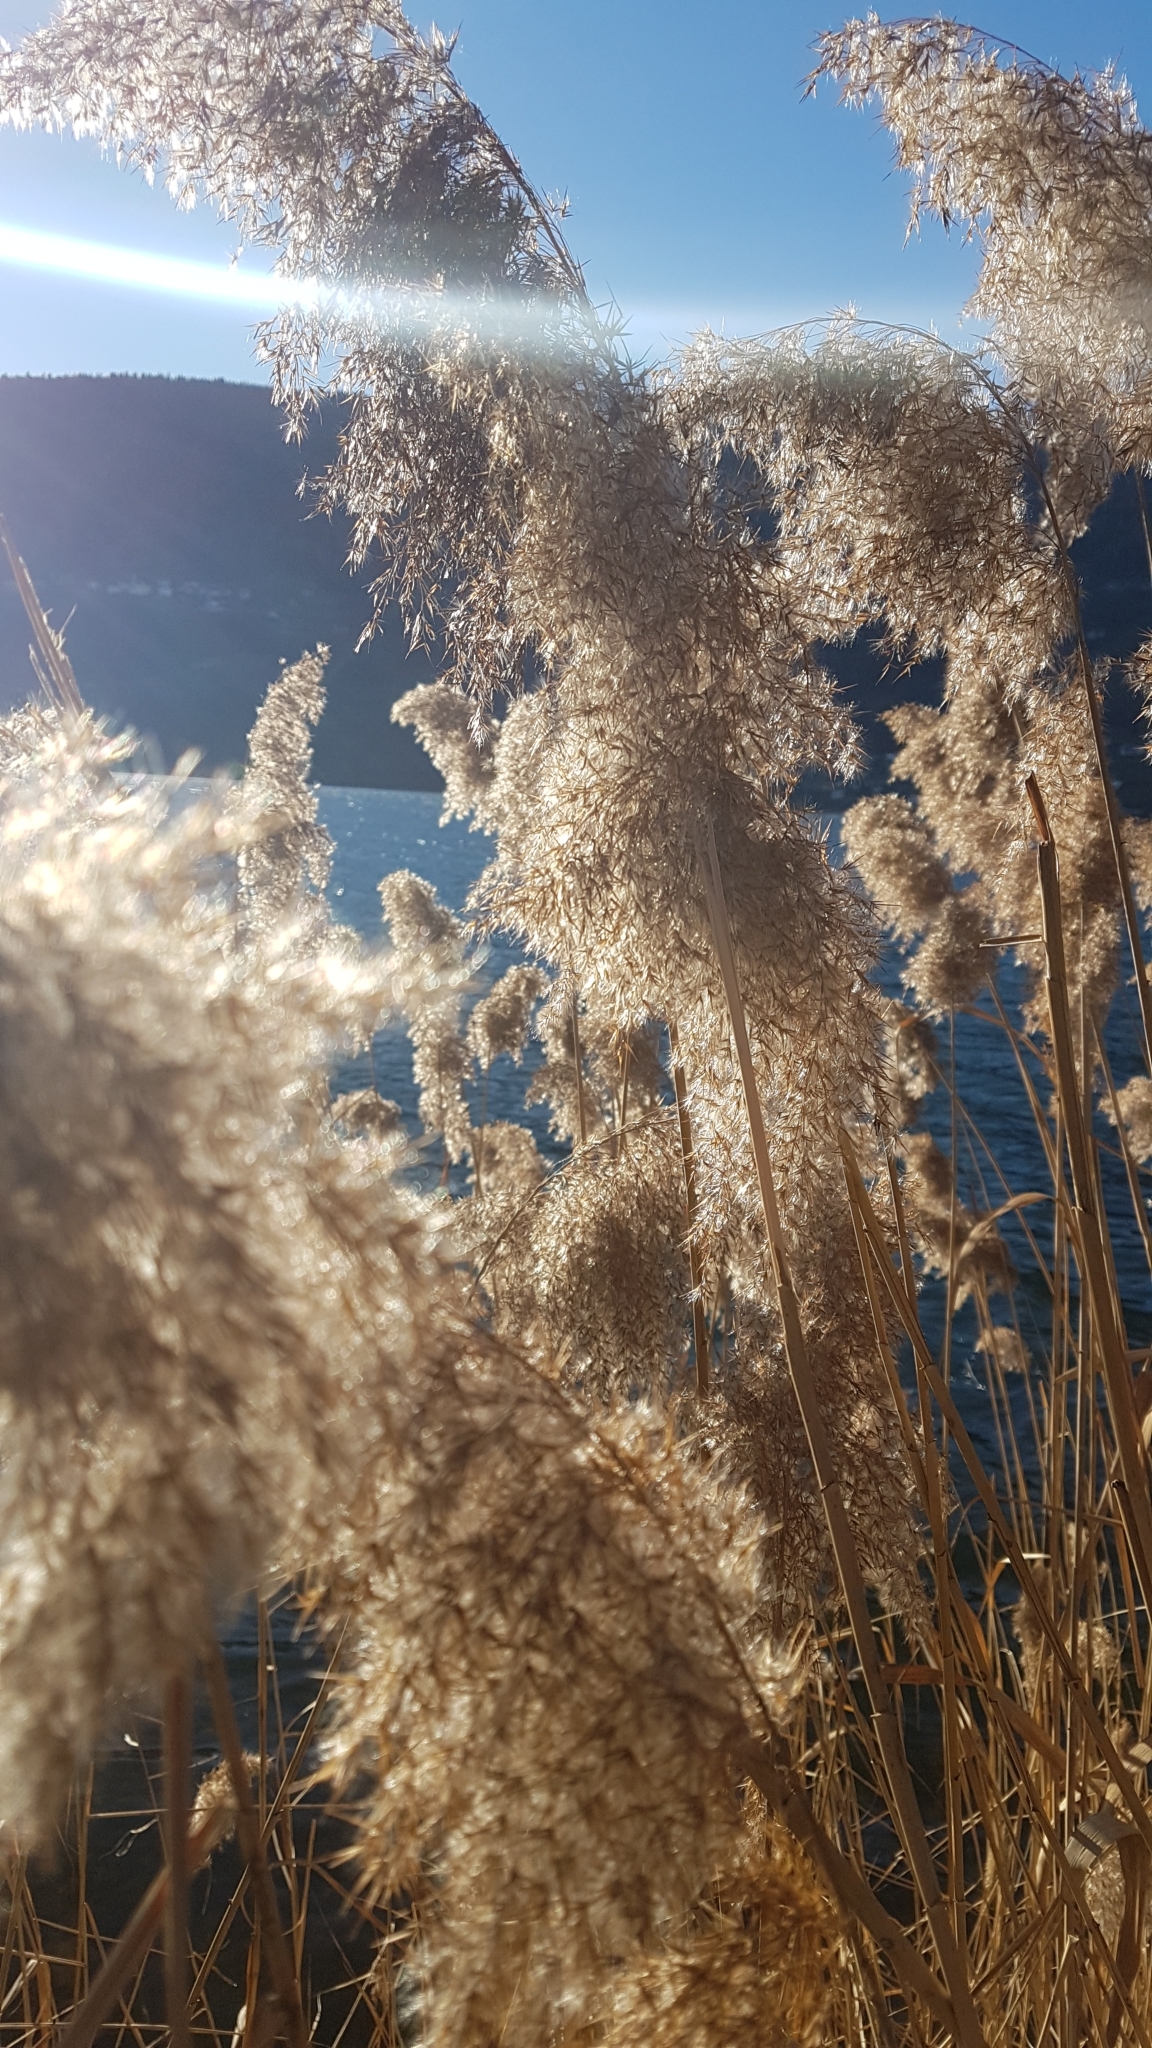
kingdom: Plantae
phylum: Tracheophyta
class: Liliopsida
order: Poales
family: Poaceae
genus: Phragmites
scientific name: Phragmites australis
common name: Common reed
